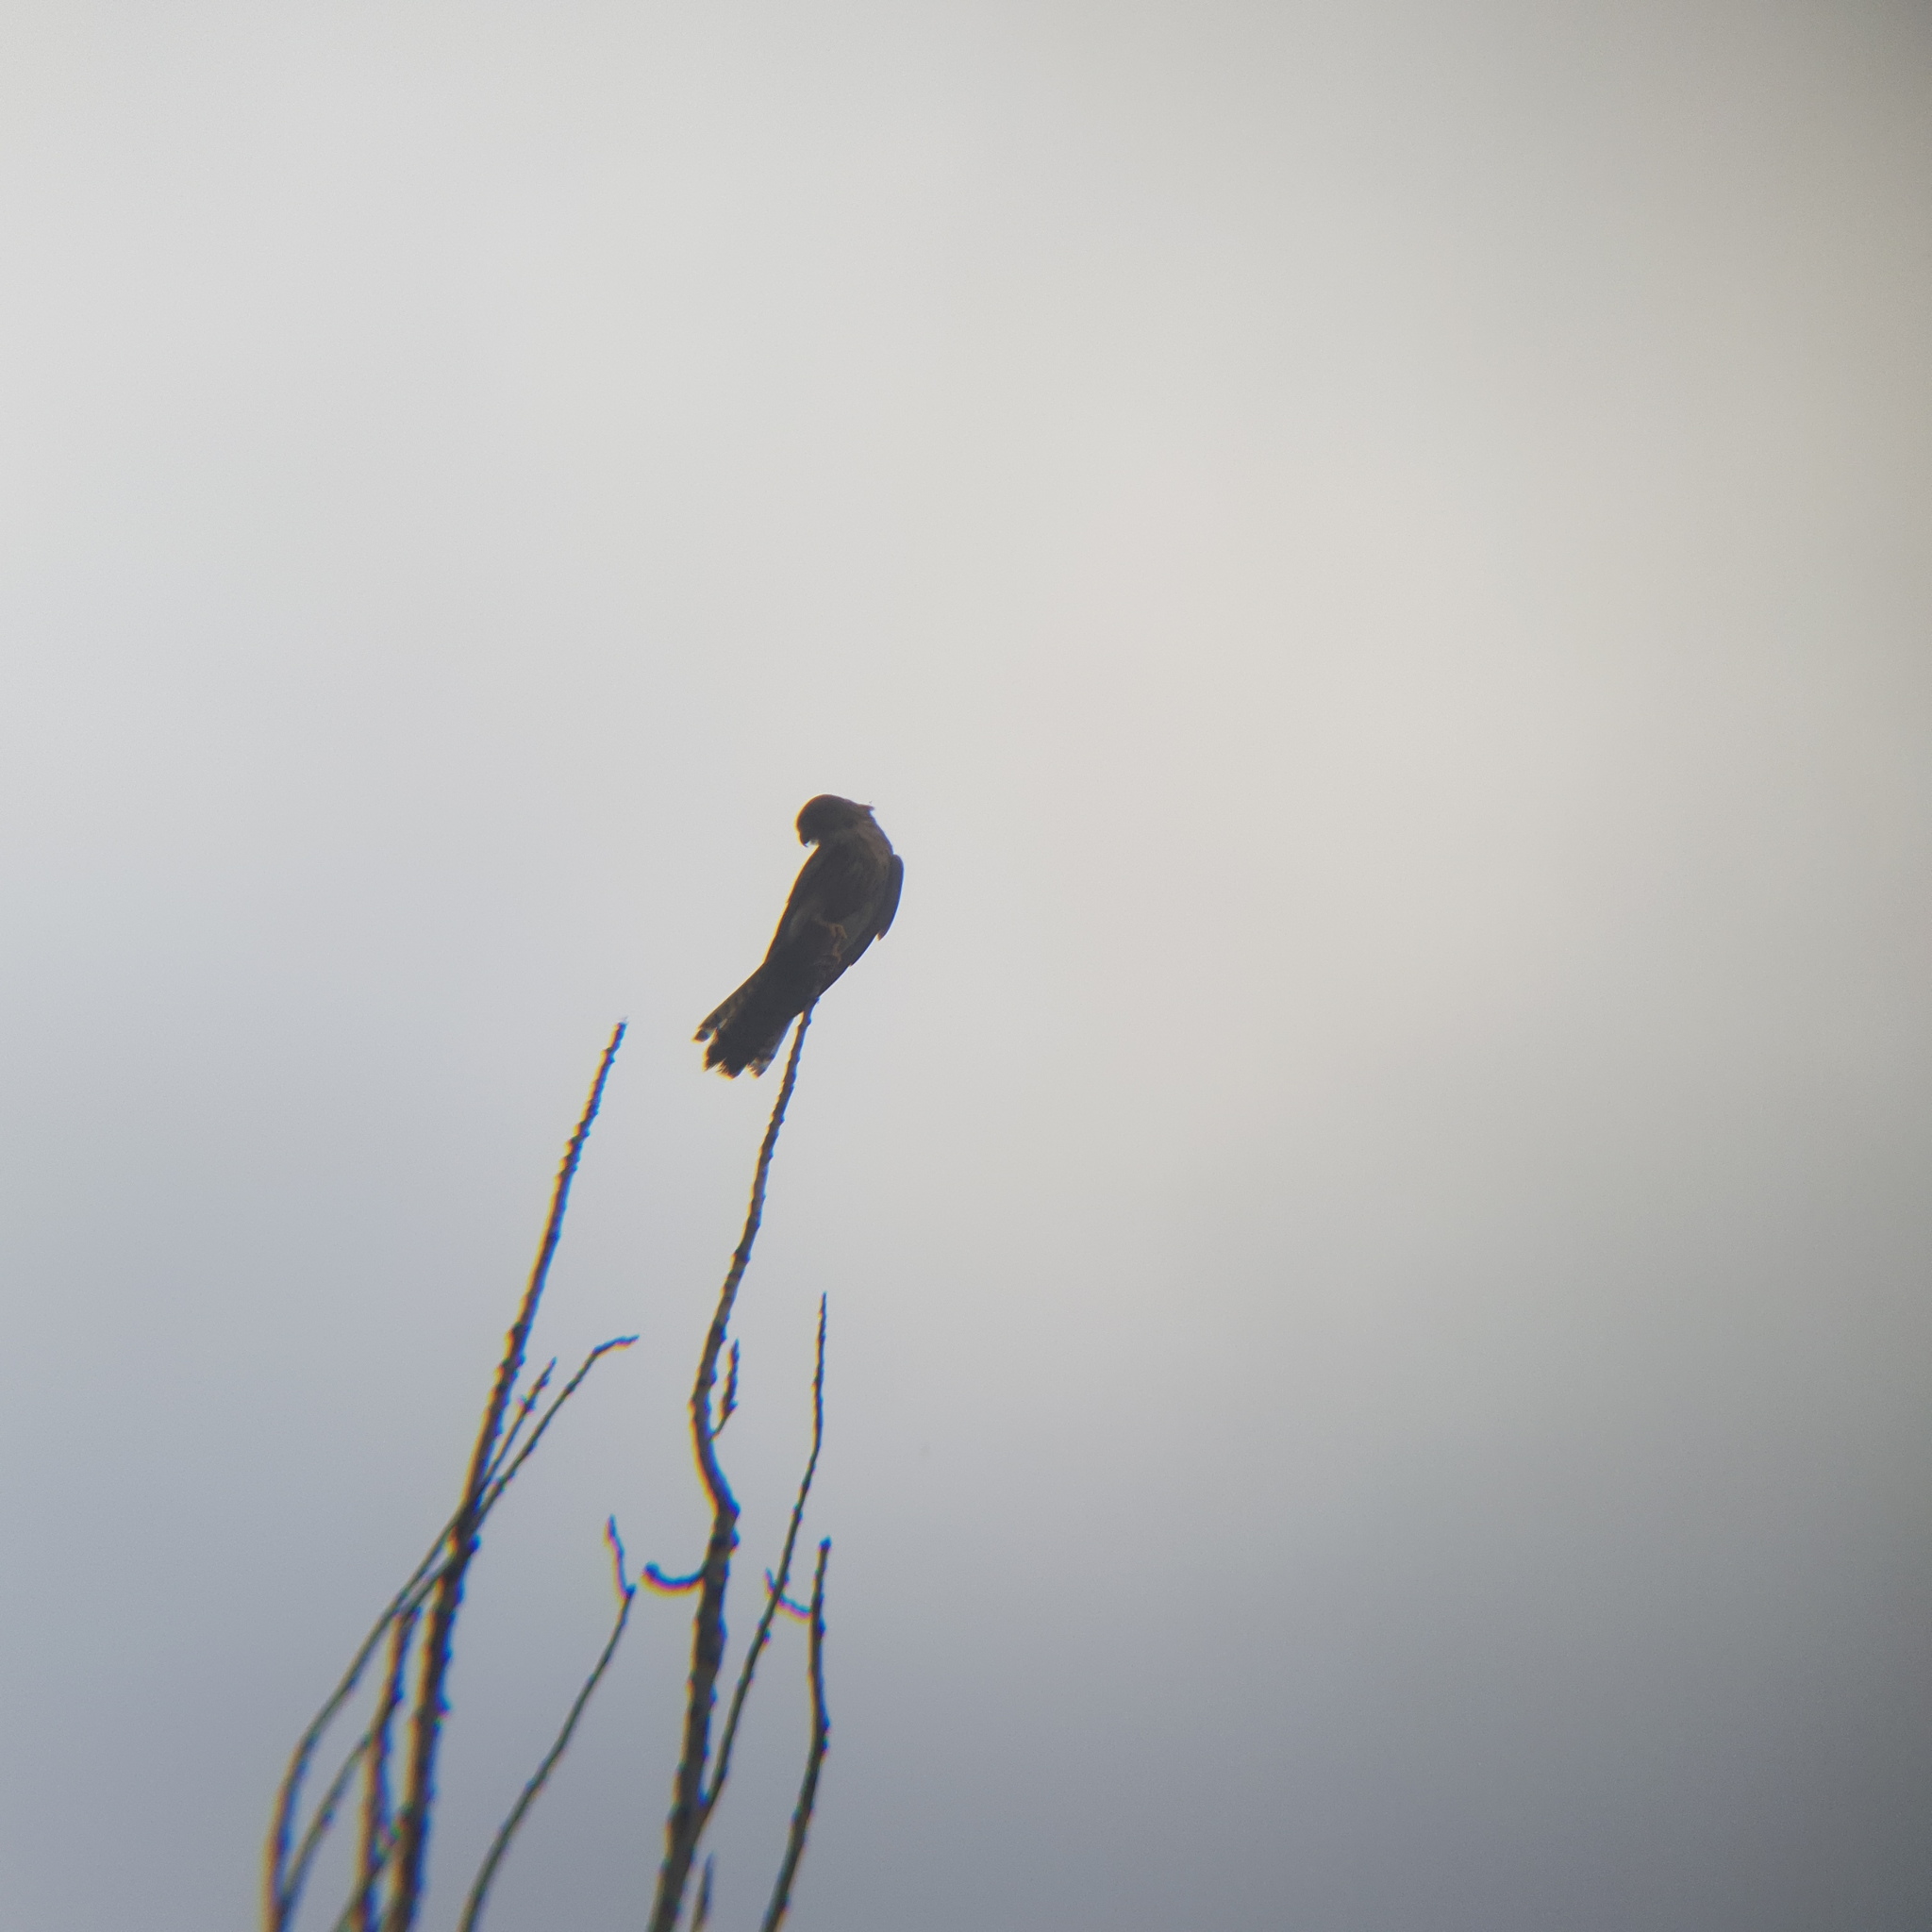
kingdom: Animalia
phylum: Chordata
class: Aves
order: Falconiformes
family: Falconidae
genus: Falco
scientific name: Falco tinnunculus
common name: Common kestrel
